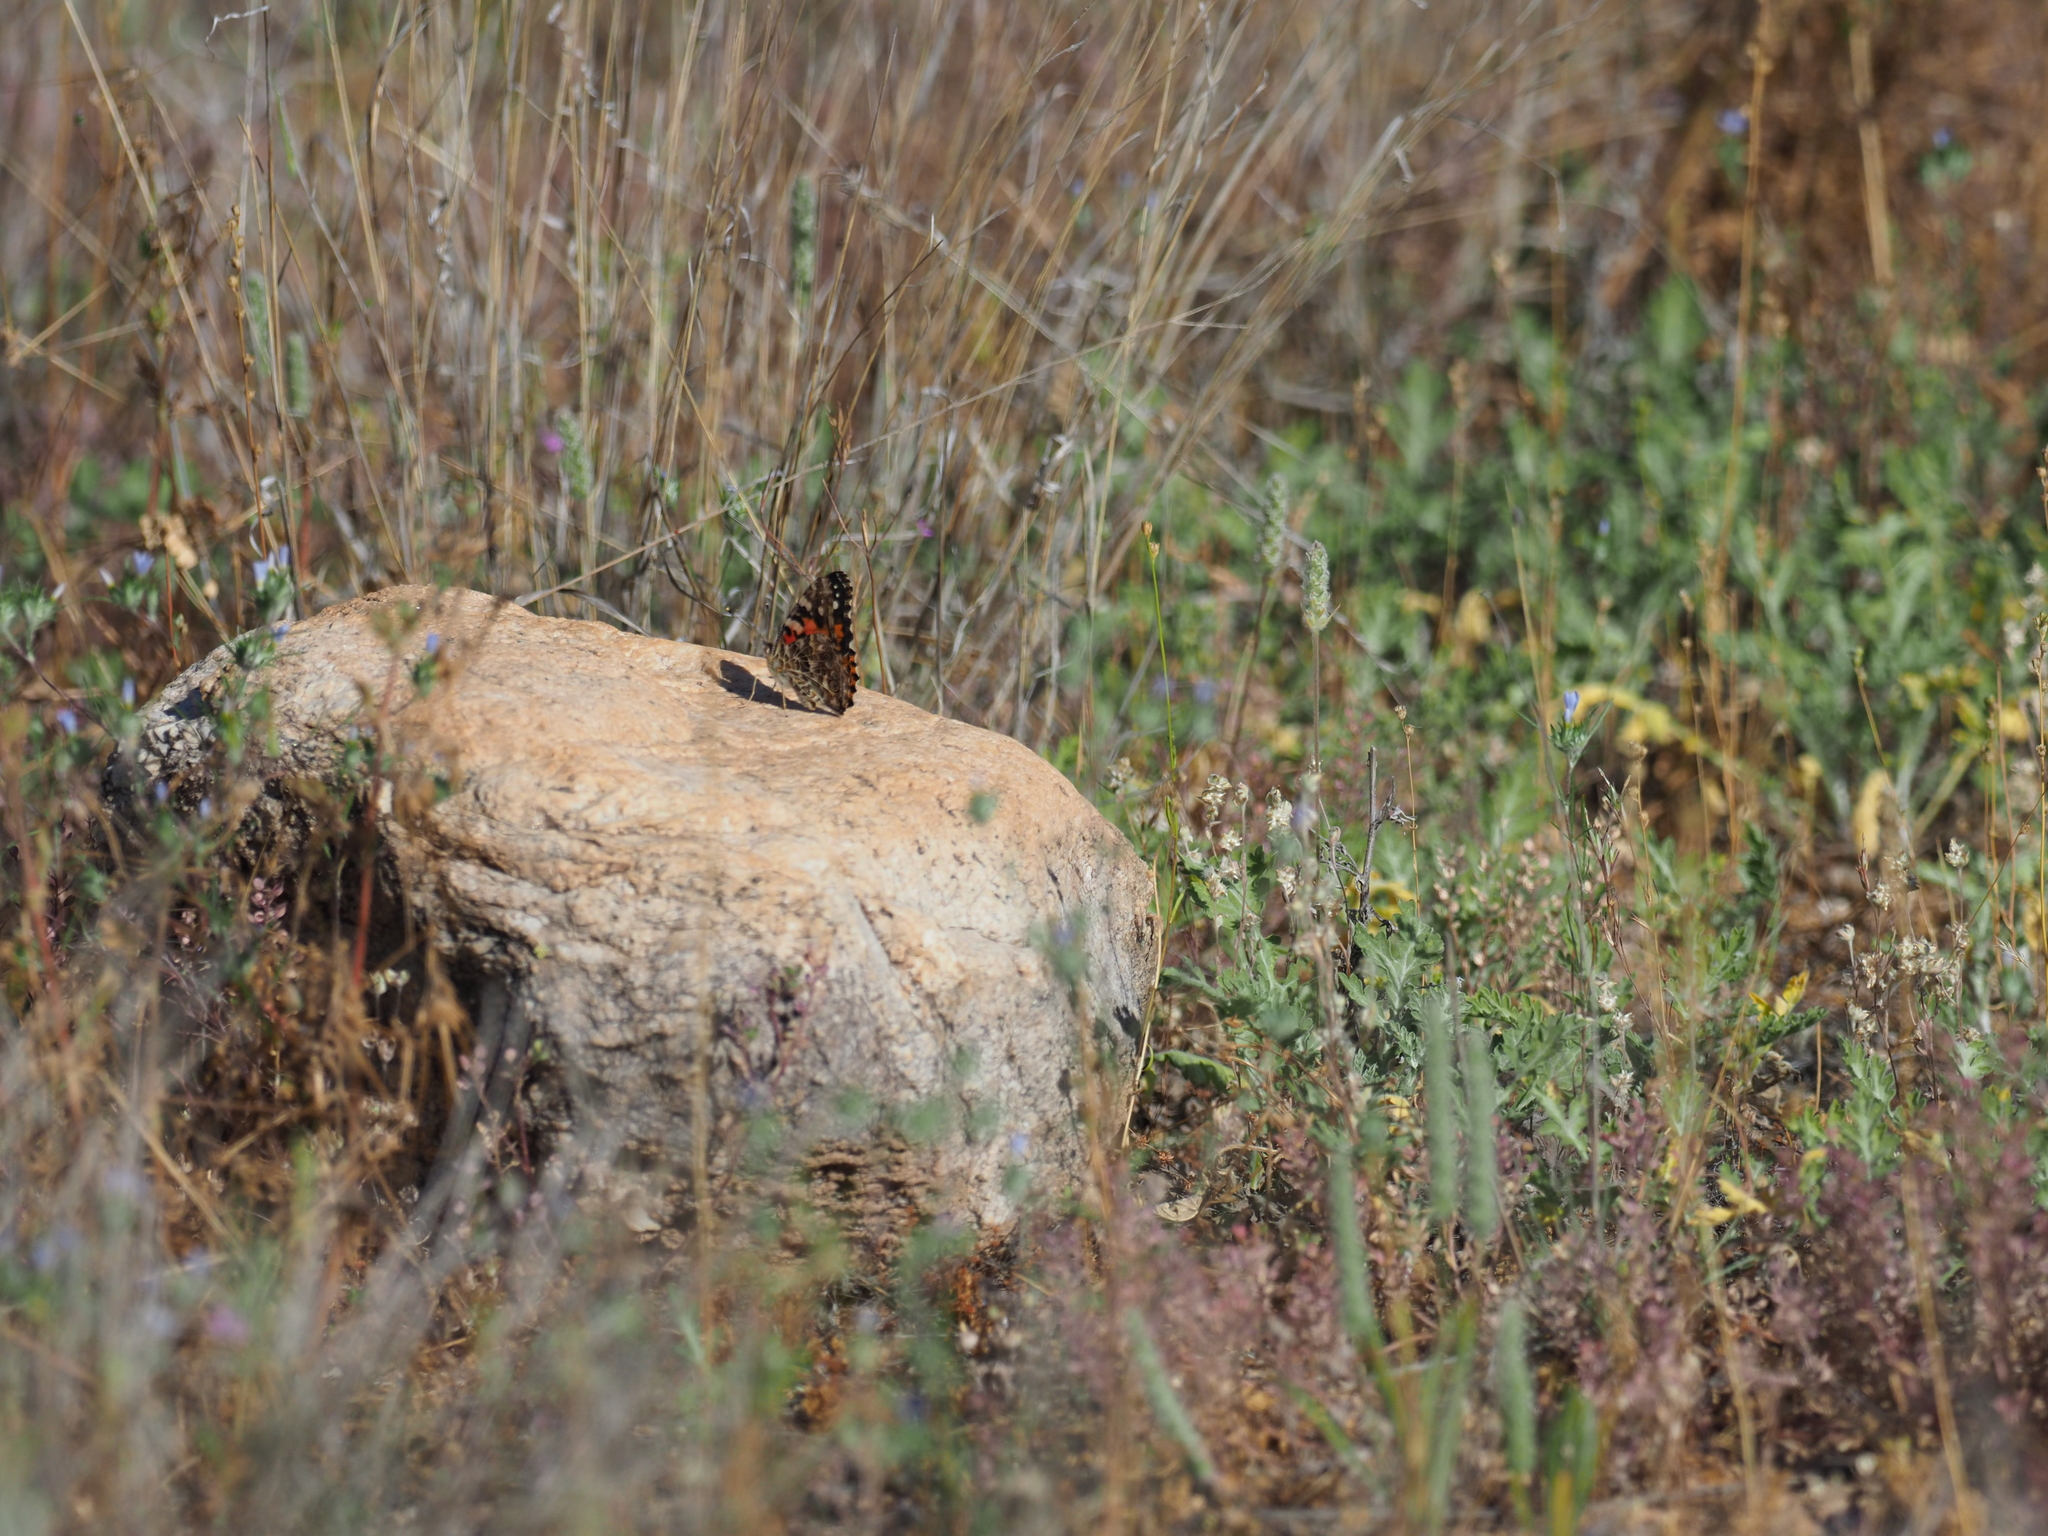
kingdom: Animalia
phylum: Arthropoda
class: Insecta
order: Lepidoptera
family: Nymphalidae
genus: Vanessa
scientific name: Vanessa cardui
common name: Painted lady
